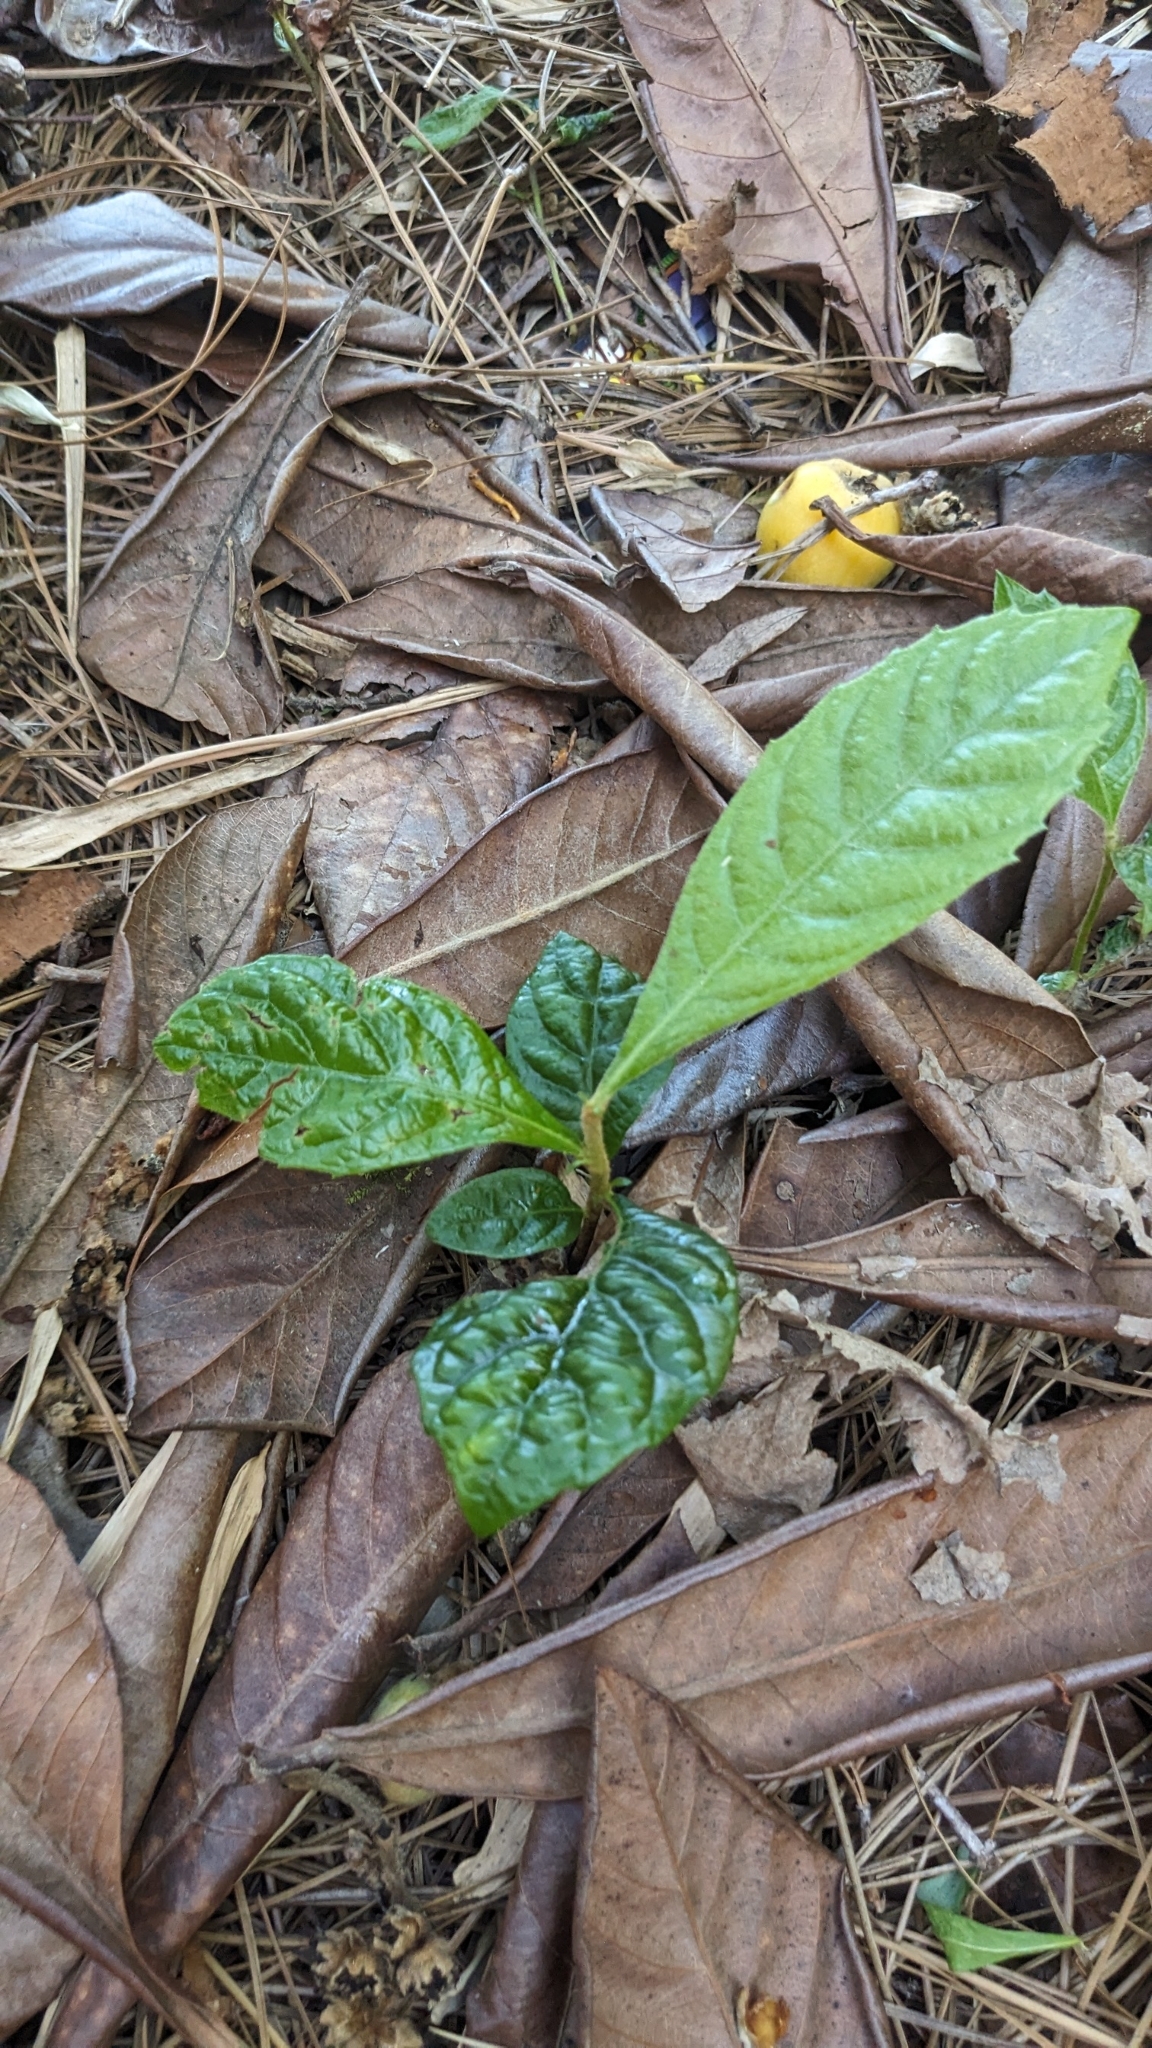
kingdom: Plantae
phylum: Tracheophyta
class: Magnoliopsida
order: Rosales
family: Rosaceae
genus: Rhaphiolepis
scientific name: Rhaphiolepis bibas
